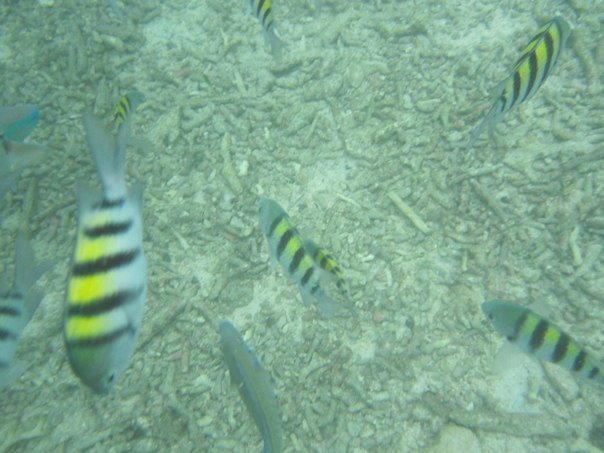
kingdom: Animalia
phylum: Chordata
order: Perciformes
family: Pomacentridae
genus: Abudefduf
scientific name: Abudefduf saxatilis
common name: Sergeant major
